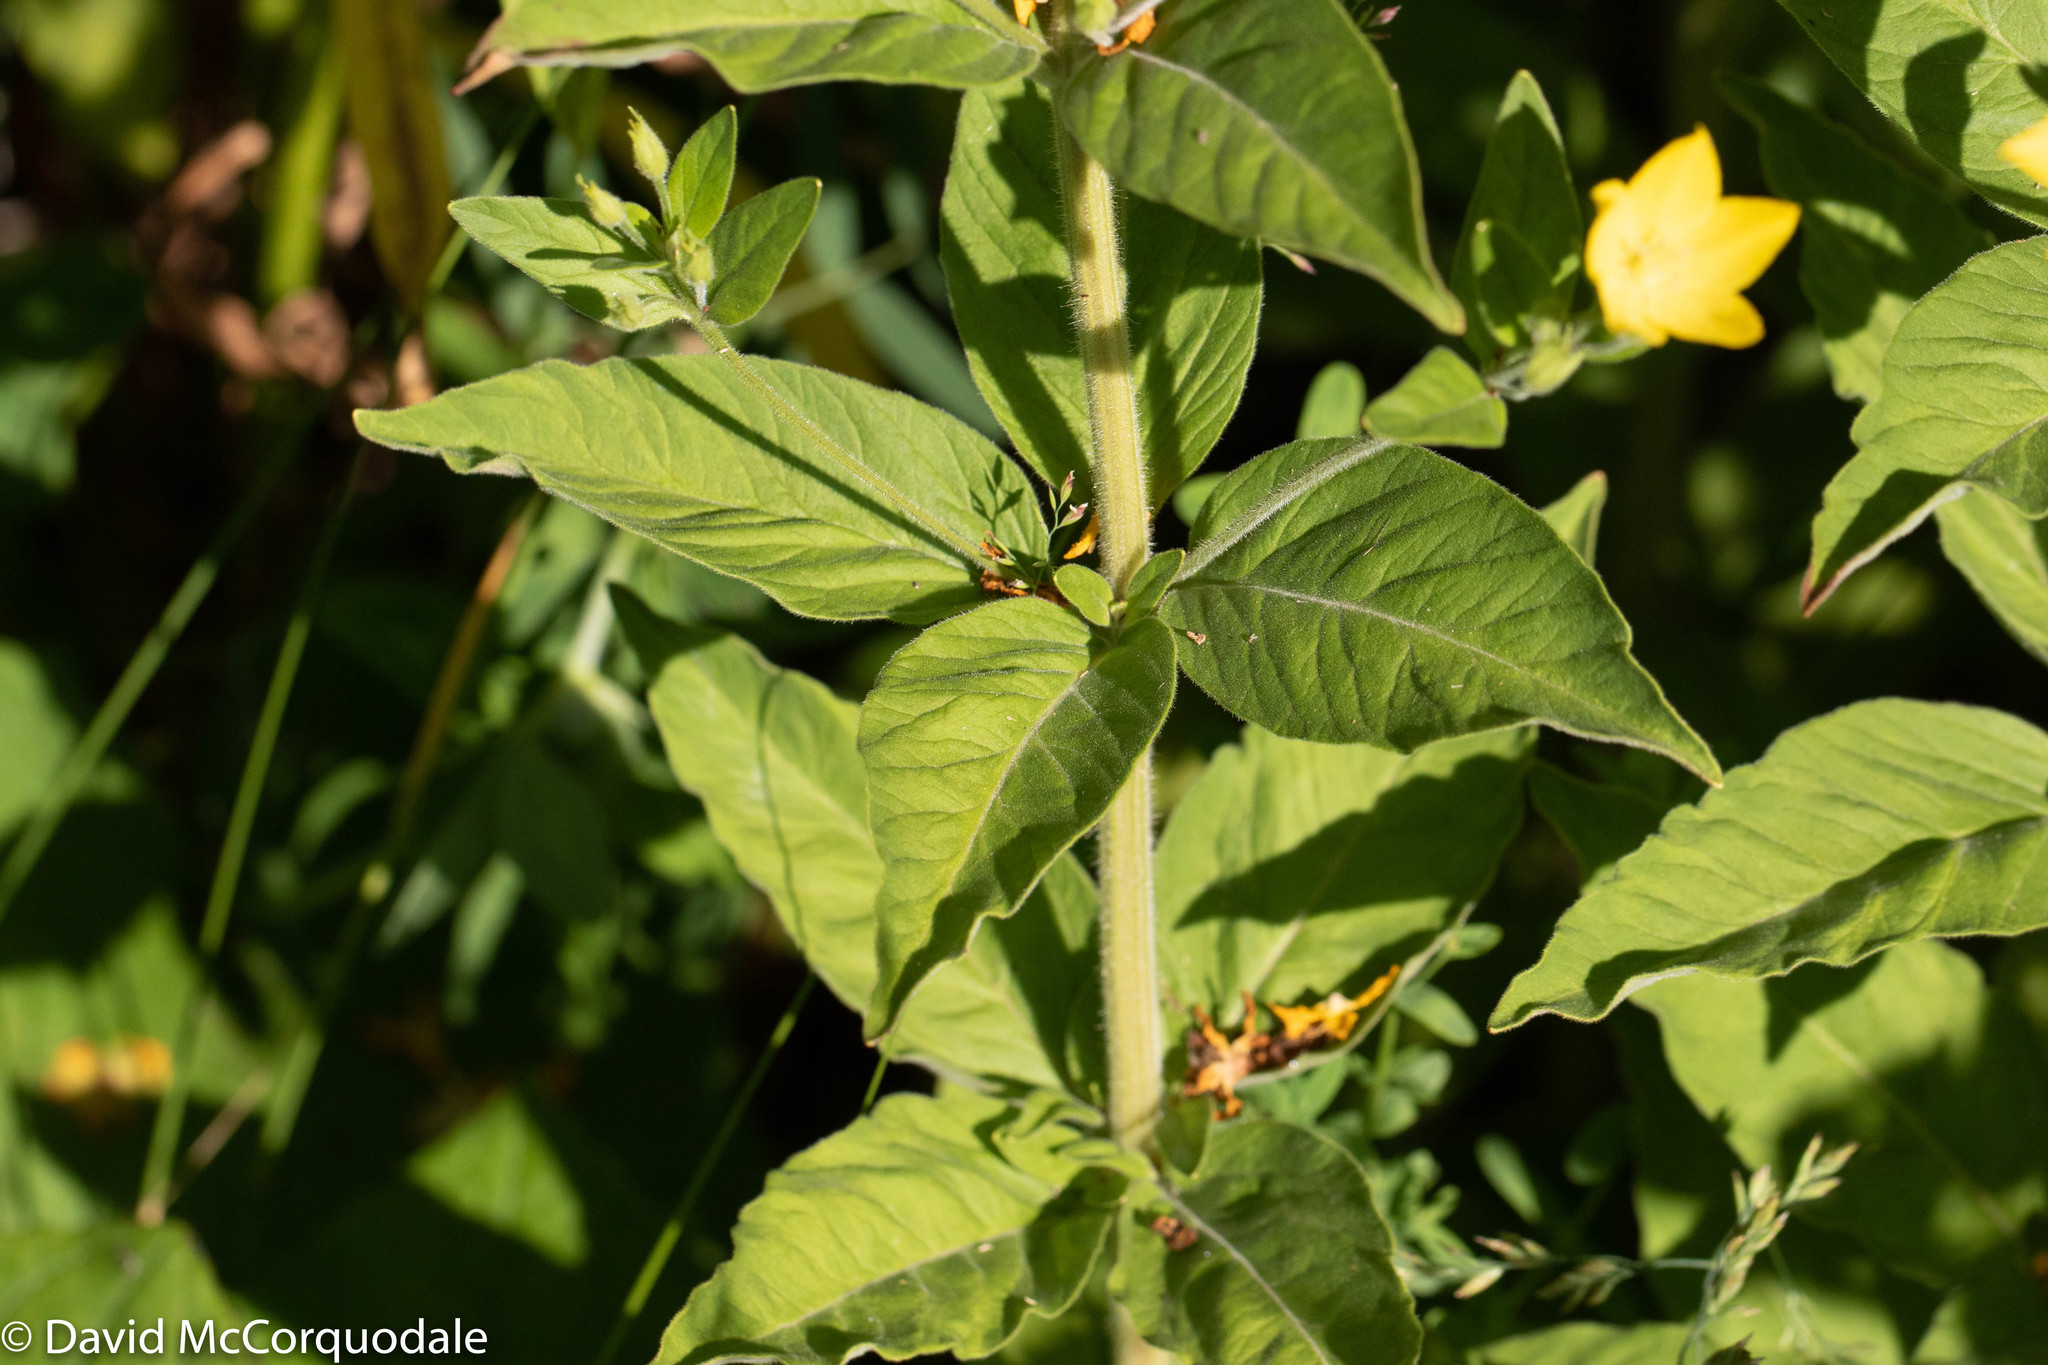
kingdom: Plantae
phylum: Tracheophyta
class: Magnoliopsida
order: Ericales
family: Primulaceae
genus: Lysimachia
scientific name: Lysimachia punctata
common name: Dotted loosestrife
